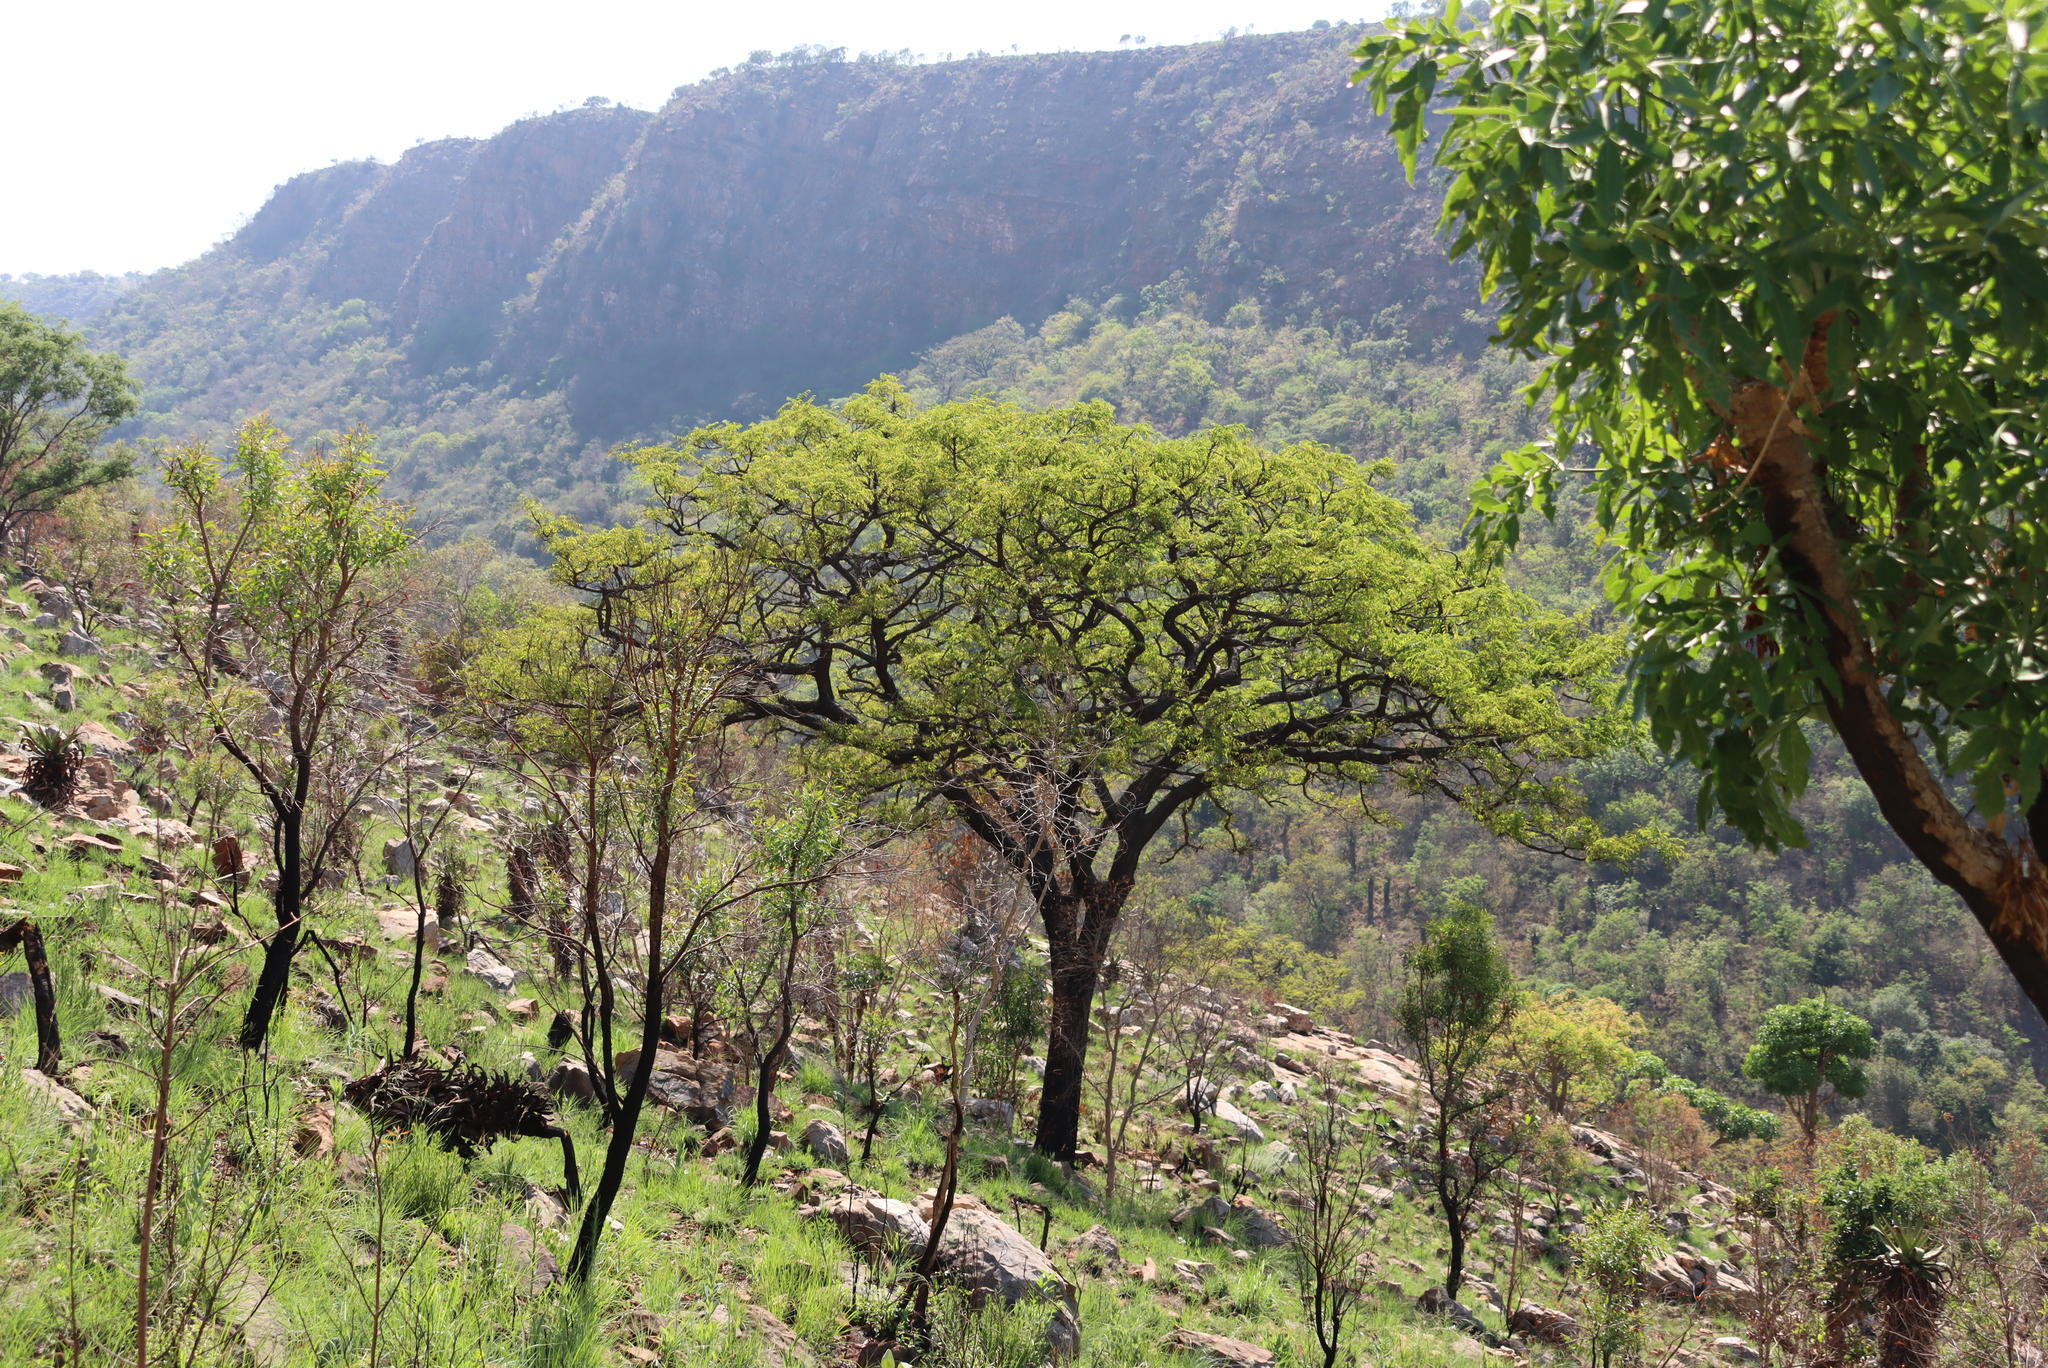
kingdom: Plantae
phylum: Tracheophyta
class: Magnoliopsida
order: Fabales
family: Fabaceae
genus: Pterocarpus
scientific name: Pterocarpus angolensis
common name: Bloodwood tree
